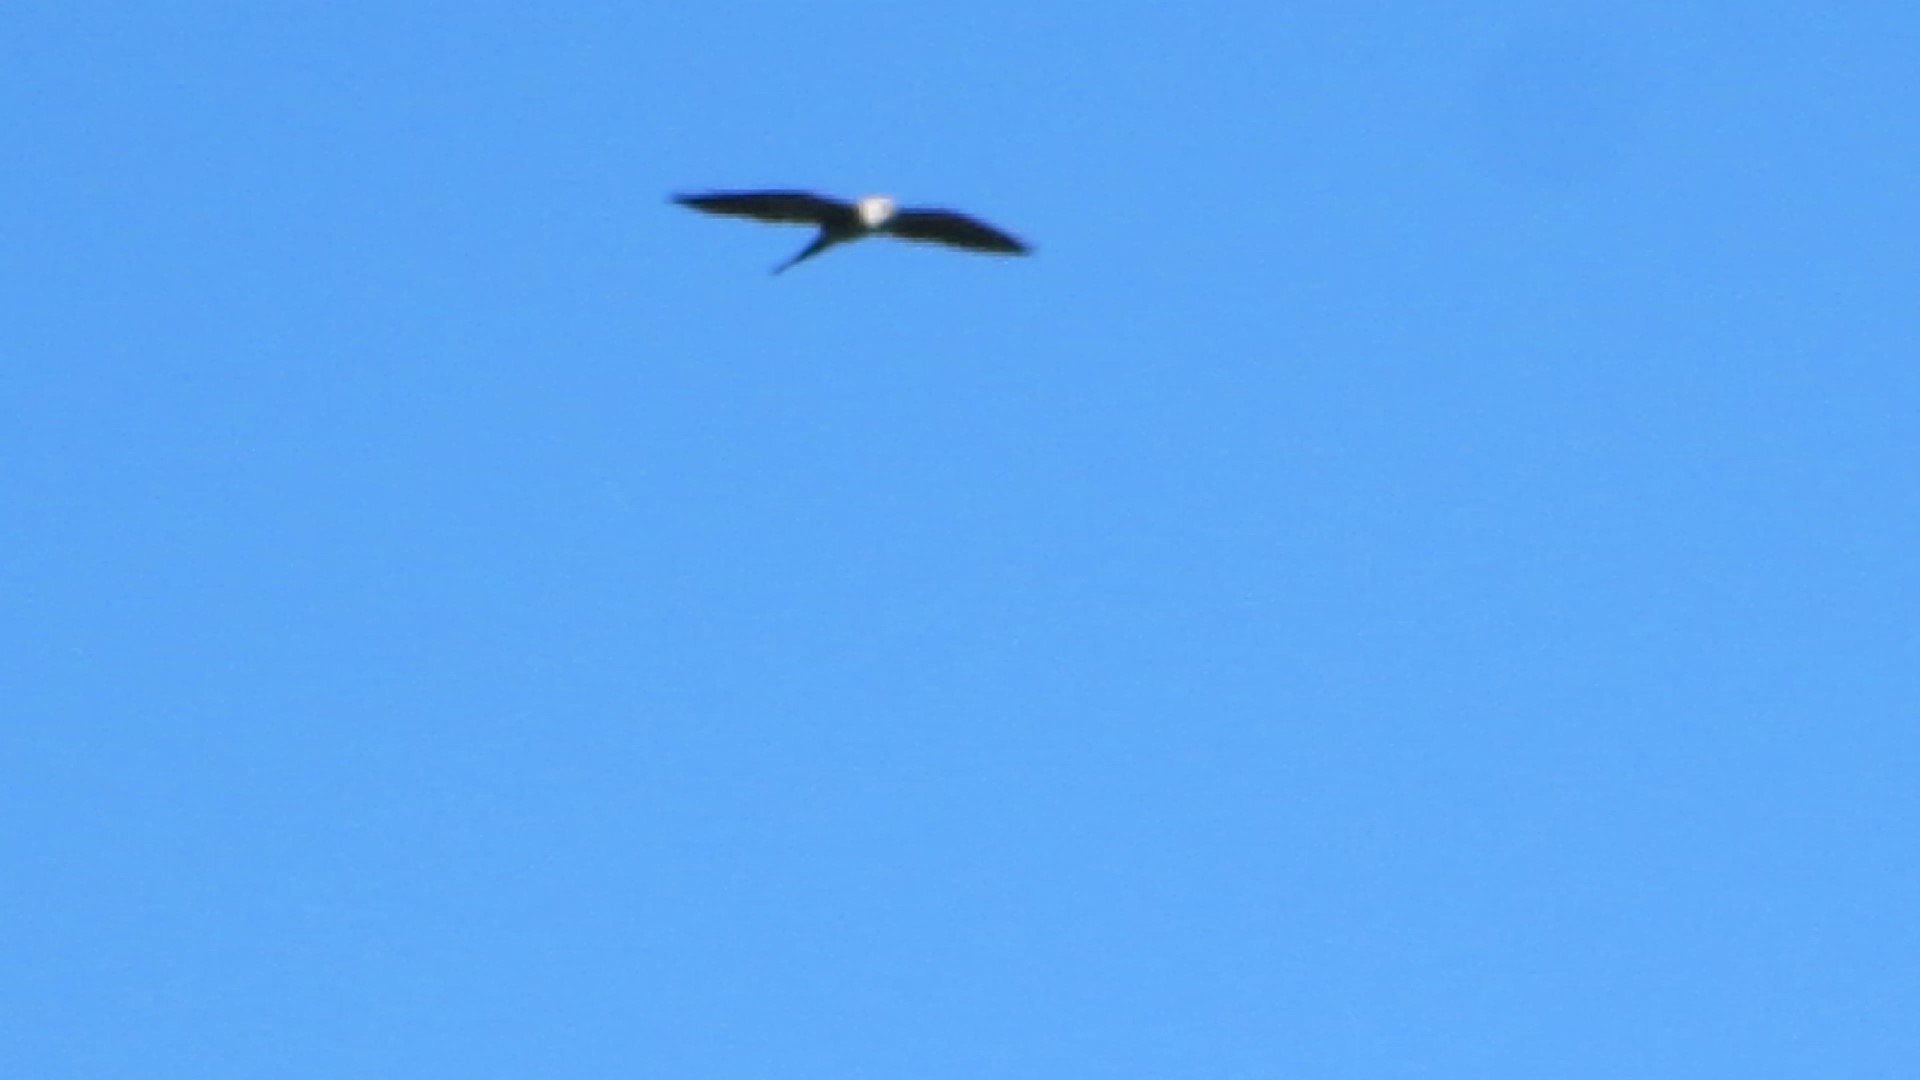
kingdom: Animalia
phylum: Chordata
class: Aves
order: Accipitriformes
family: Accipitridae
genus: Ictinia
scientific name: Ictinia mississippiensis
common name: Mississippi kite
